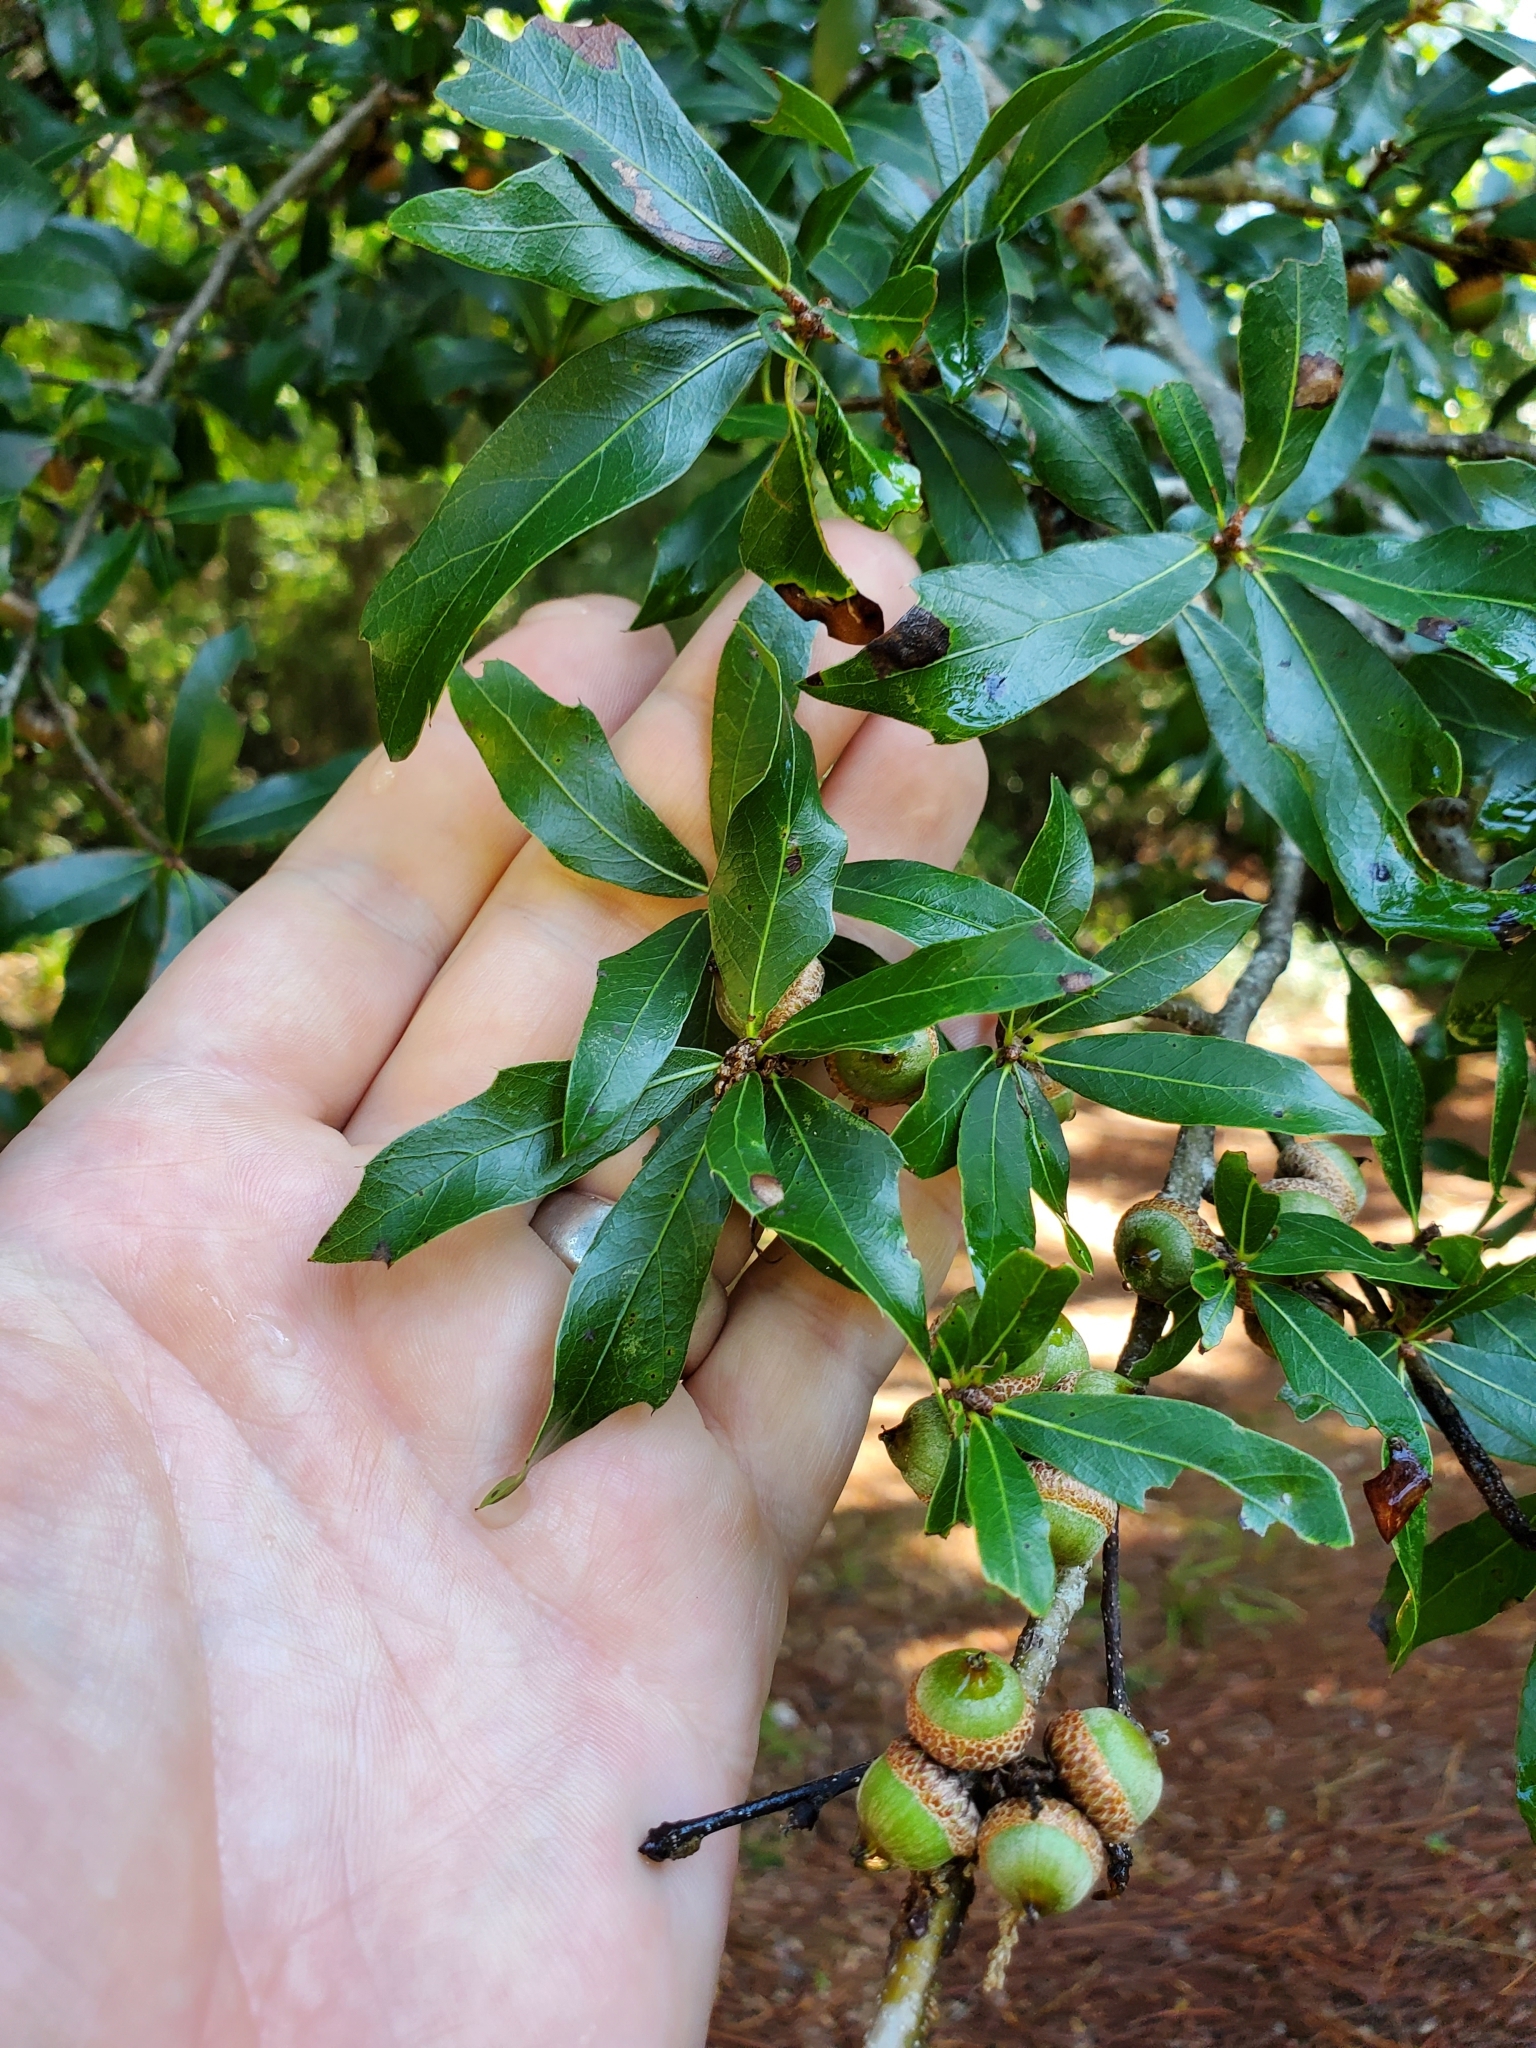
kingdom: Plantae
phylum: Tracheophyta
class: Magnoliopsida
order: Fagales
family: Fagaceae
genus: Quercus
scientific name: Quercus hemisphaerica
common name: Darlington oak
